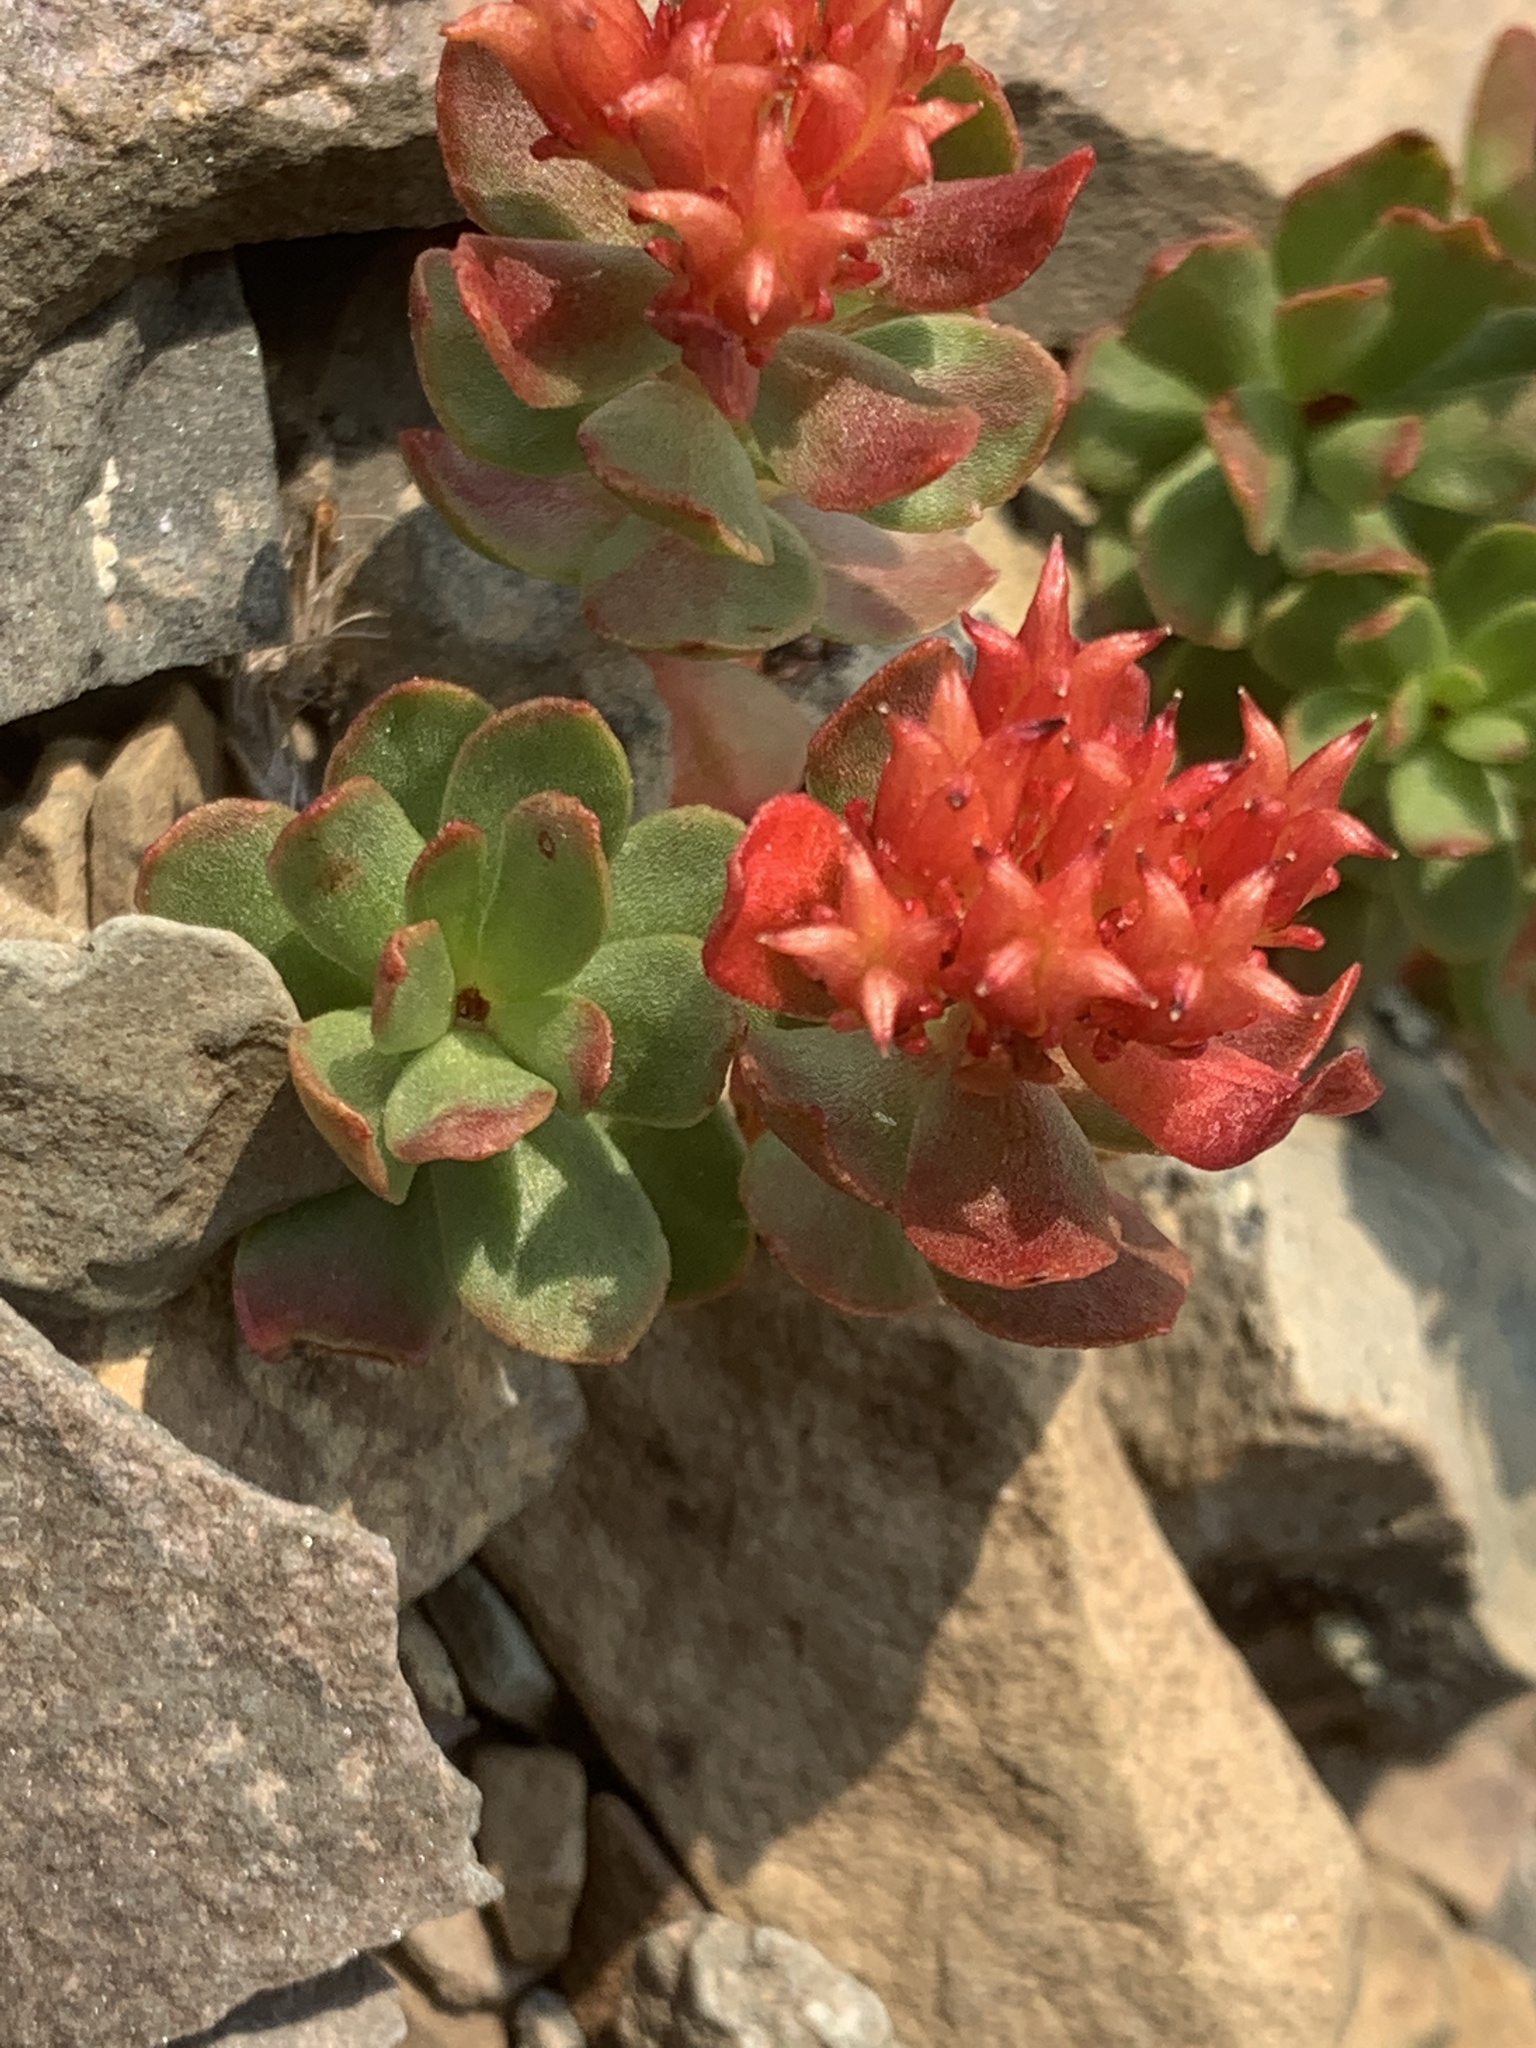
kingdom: Plantae
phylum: Tracheophyta
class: Magnoliopsida
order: Saxifragales
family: Crassulaceae
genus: Rhodiola
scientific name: Rhodiola integrifolia
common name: Western roseroot
